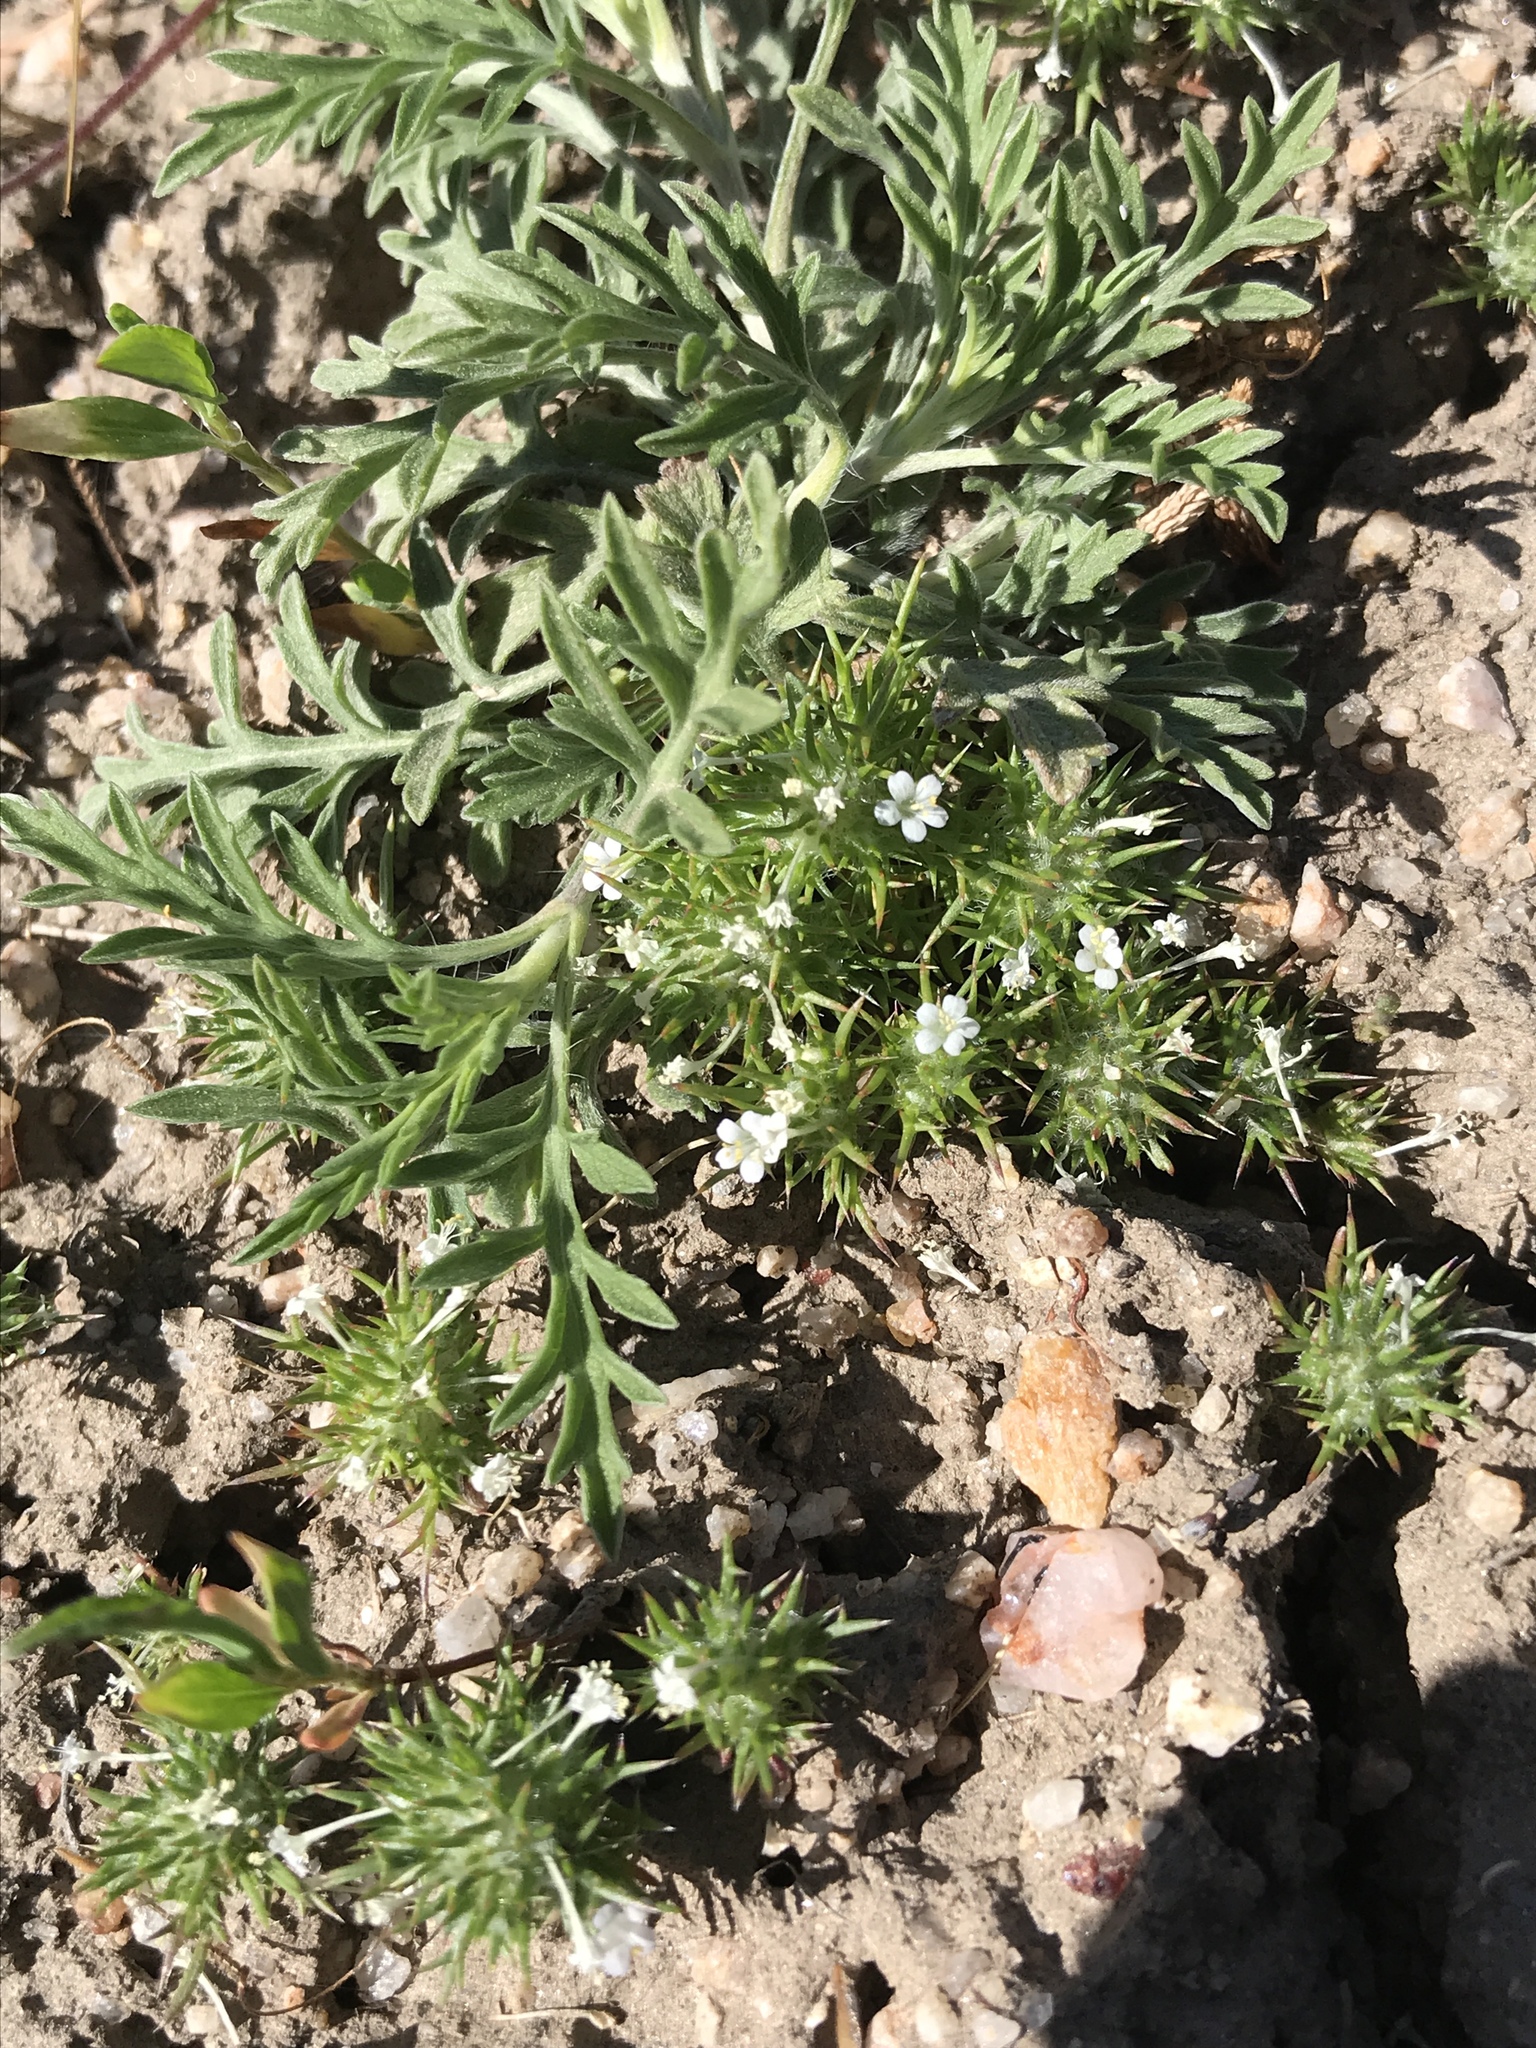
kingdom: Plantae
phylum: Tracheophyta
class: Magnoliopsida
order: Ericales
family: Polemoniaceae
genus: Navarretia
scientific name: Navarretia intertexta
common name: Needle-leaved navarretia
